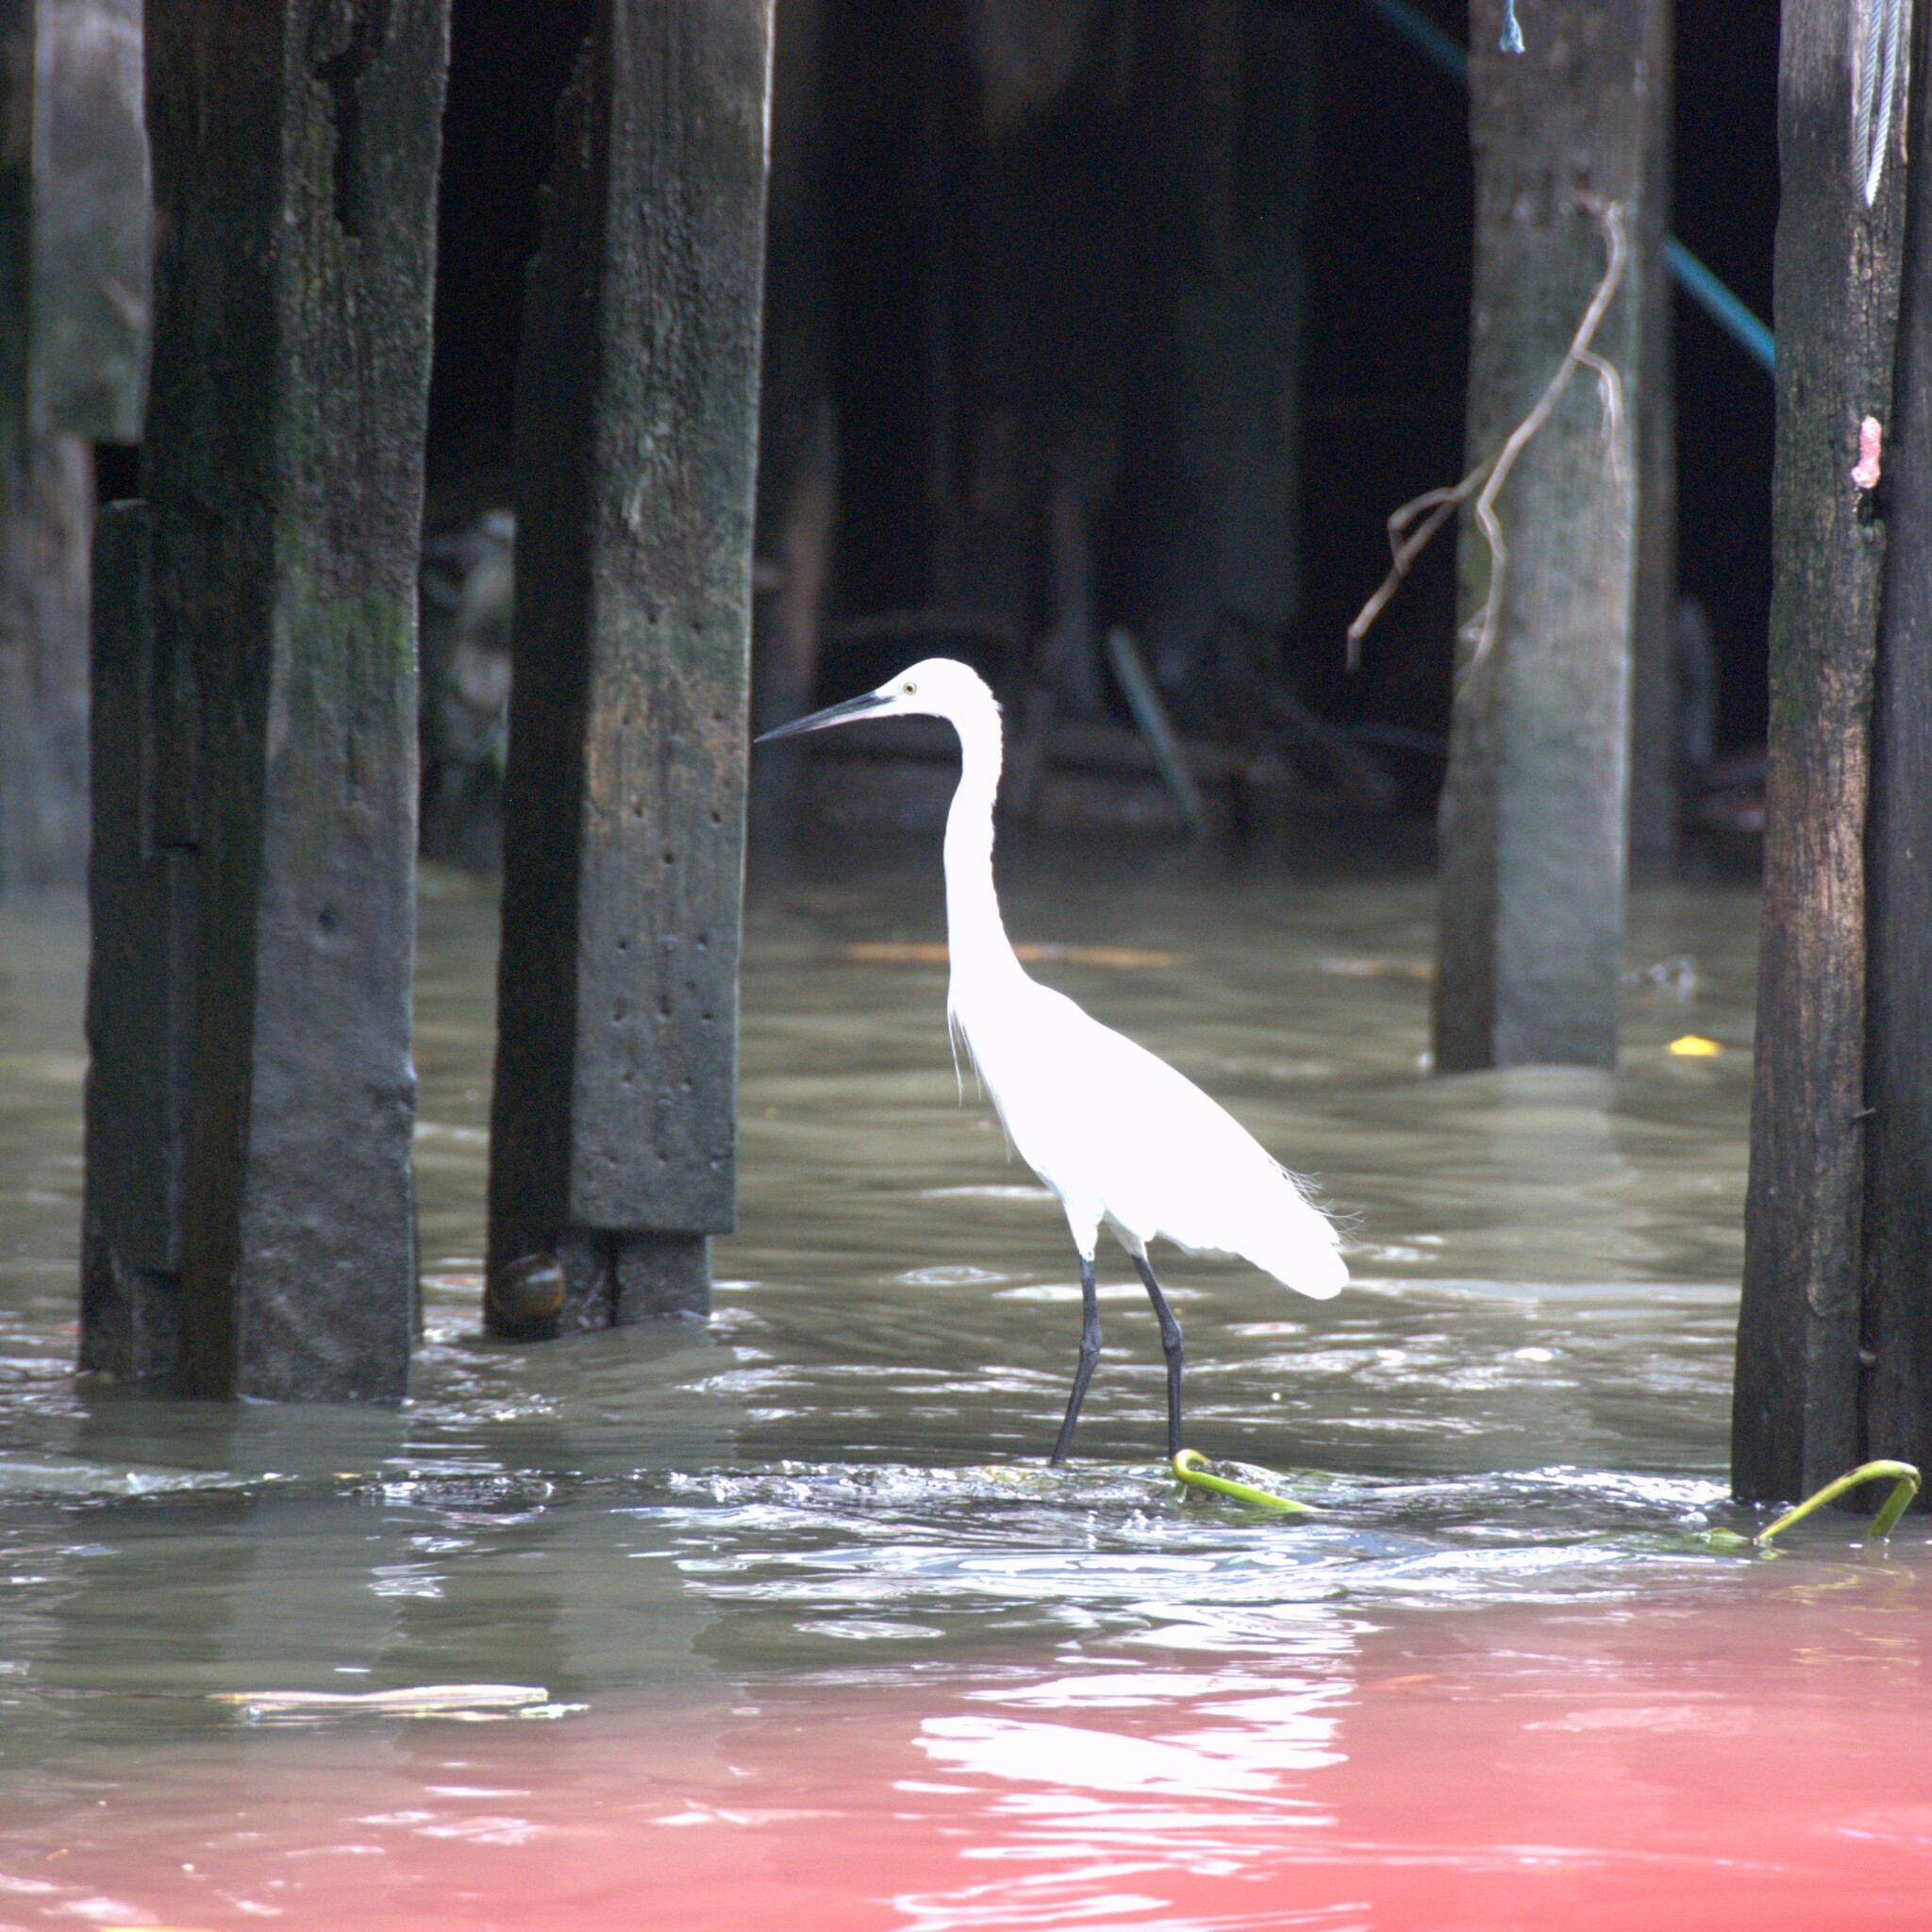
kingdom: Animalia
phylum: Chordata
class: Aves
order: Pelecaniformes
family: Ardeidae
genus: Egretta
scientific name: Egretta garzetta
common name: Little egret
